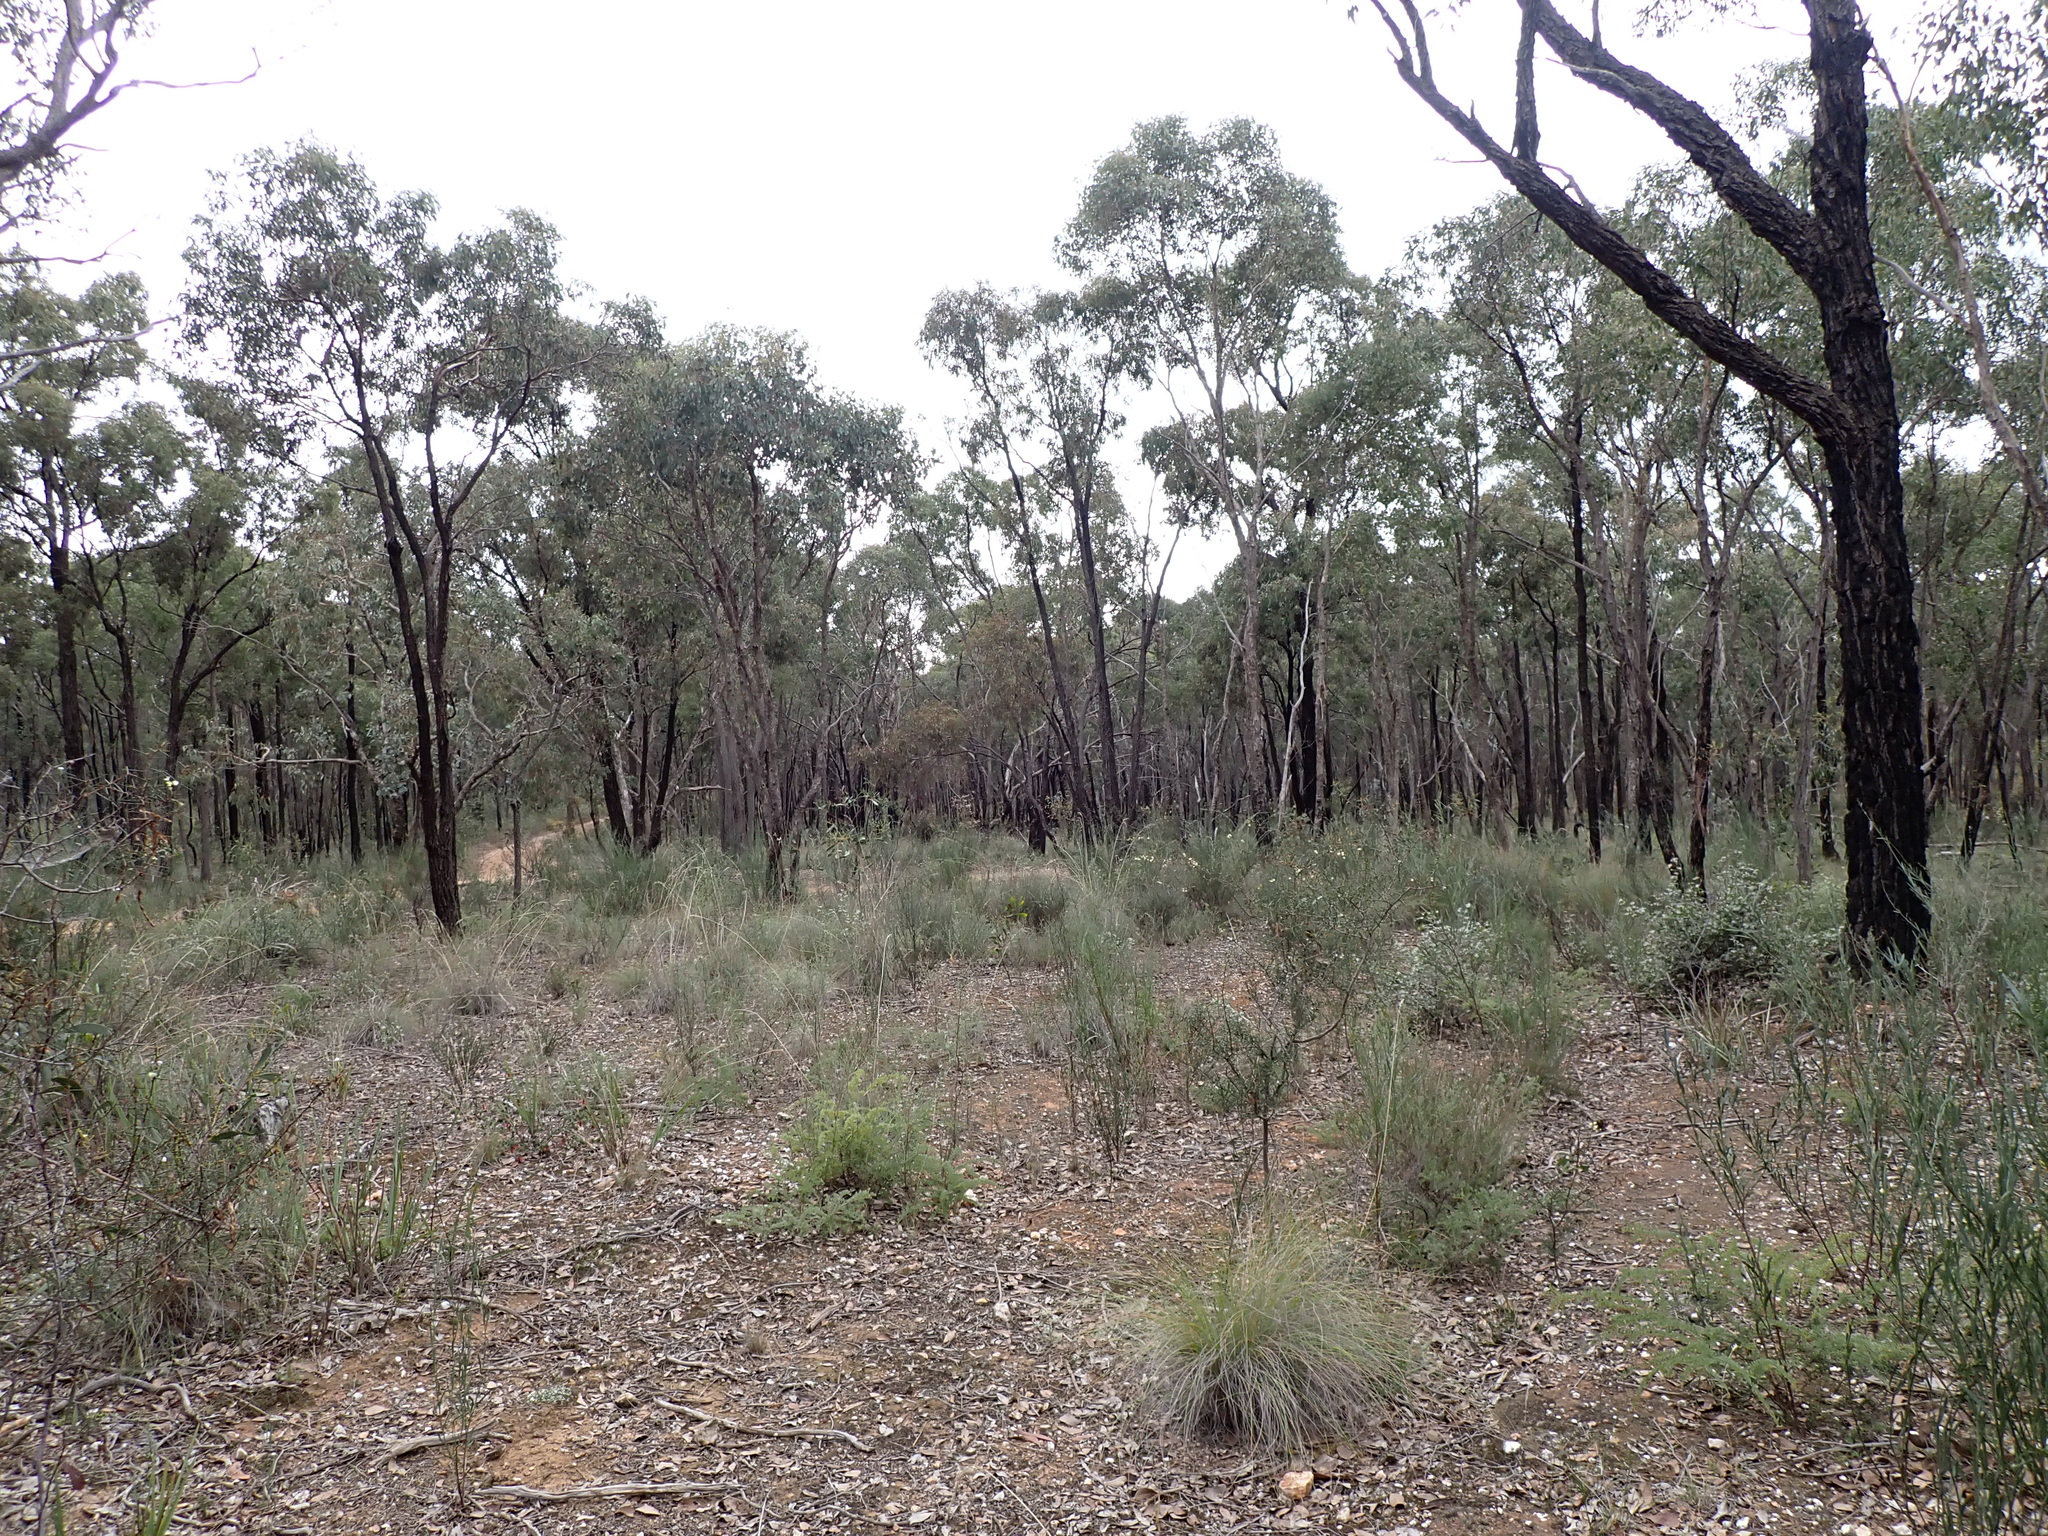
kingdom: Plantae
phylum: Tracheophyta
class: Magnoliopsida
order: Sapindales
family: Rutaceae
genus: Correa
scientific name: Correa reflexa
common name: Common correa
